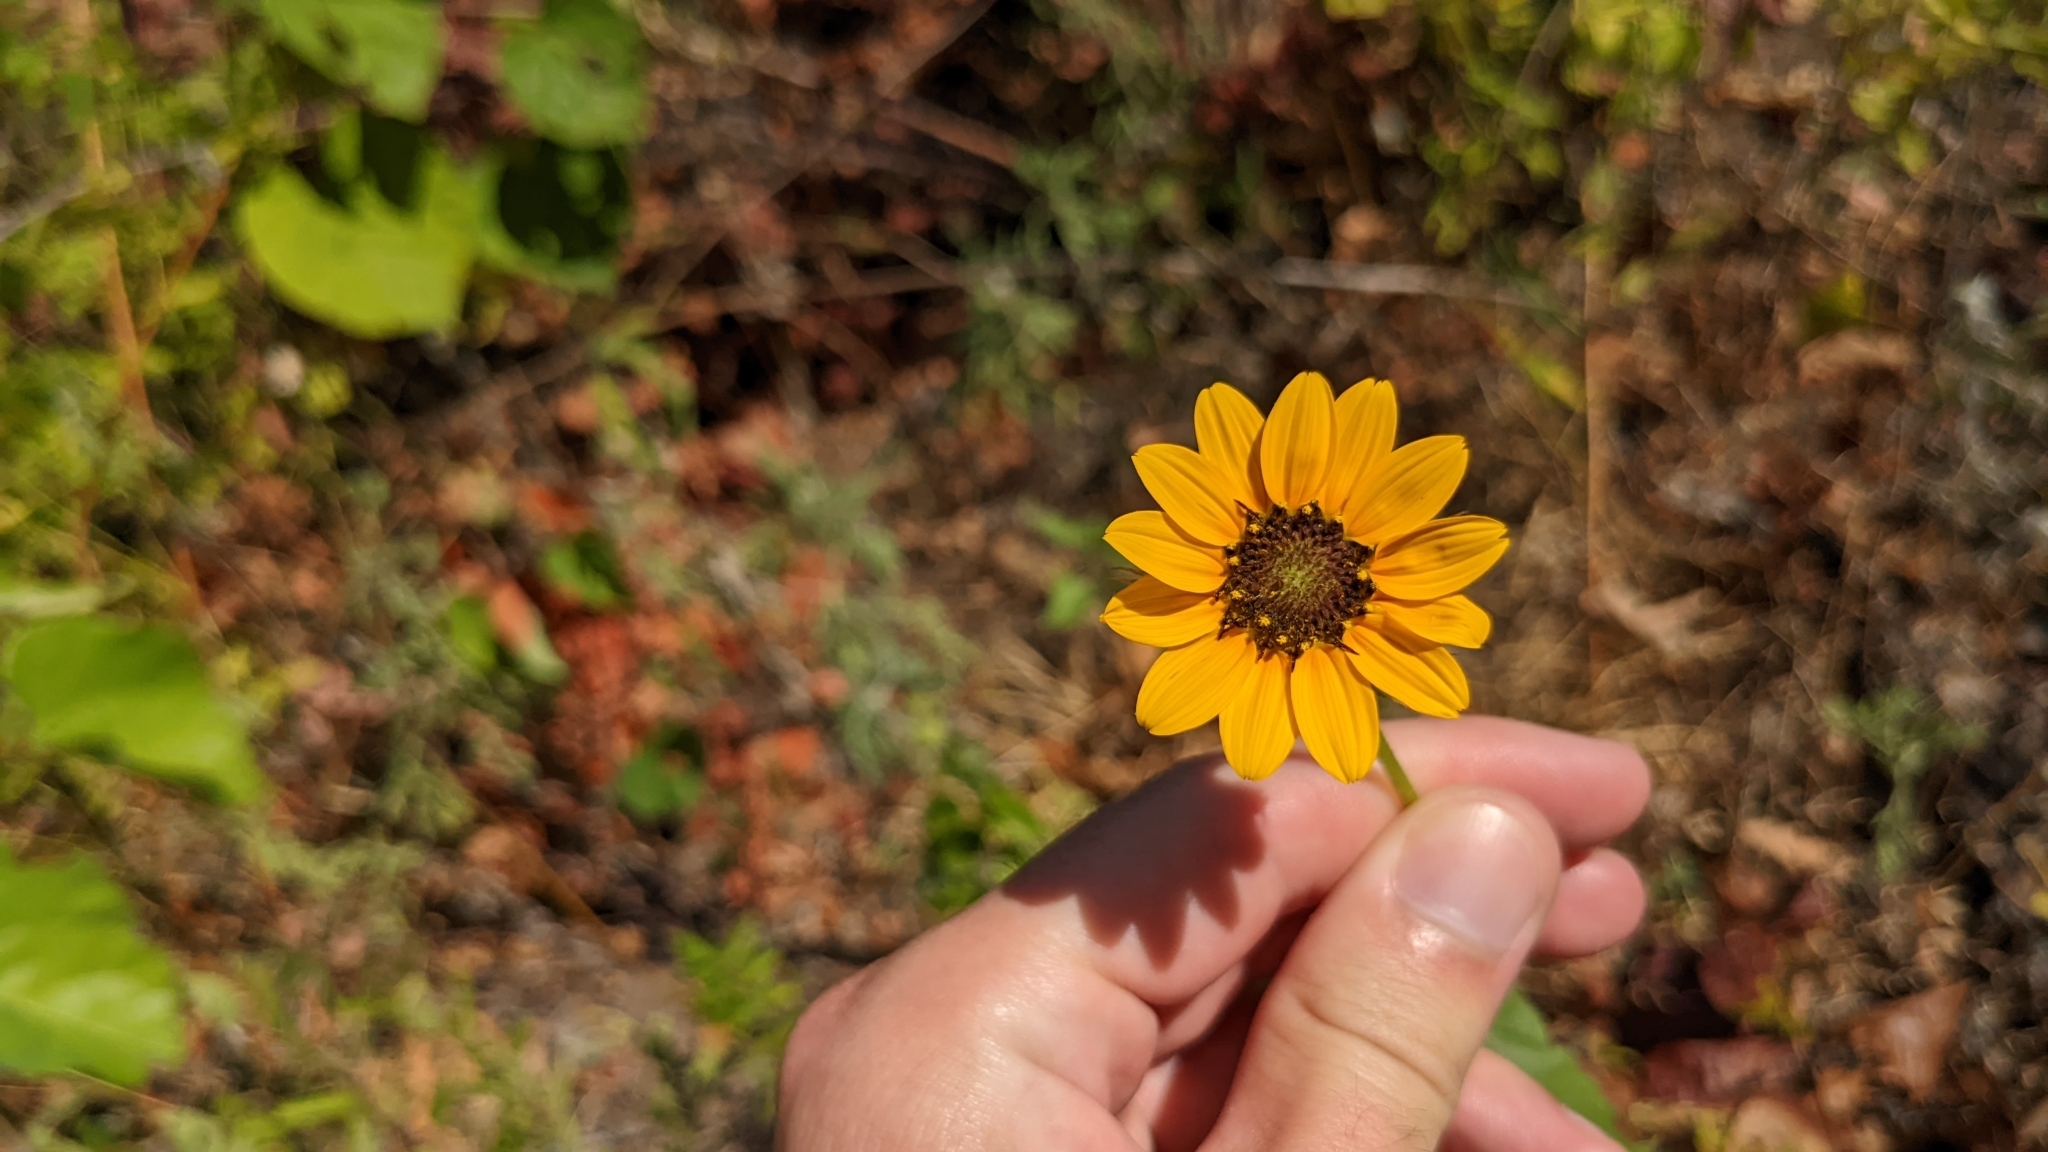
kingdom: Plantae
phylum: Tracheophyta
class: Magnoliopsida
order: Asterales
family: Asteraceae
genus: Helianthus
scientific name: Helianthus debilis
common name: Weak sunflower
